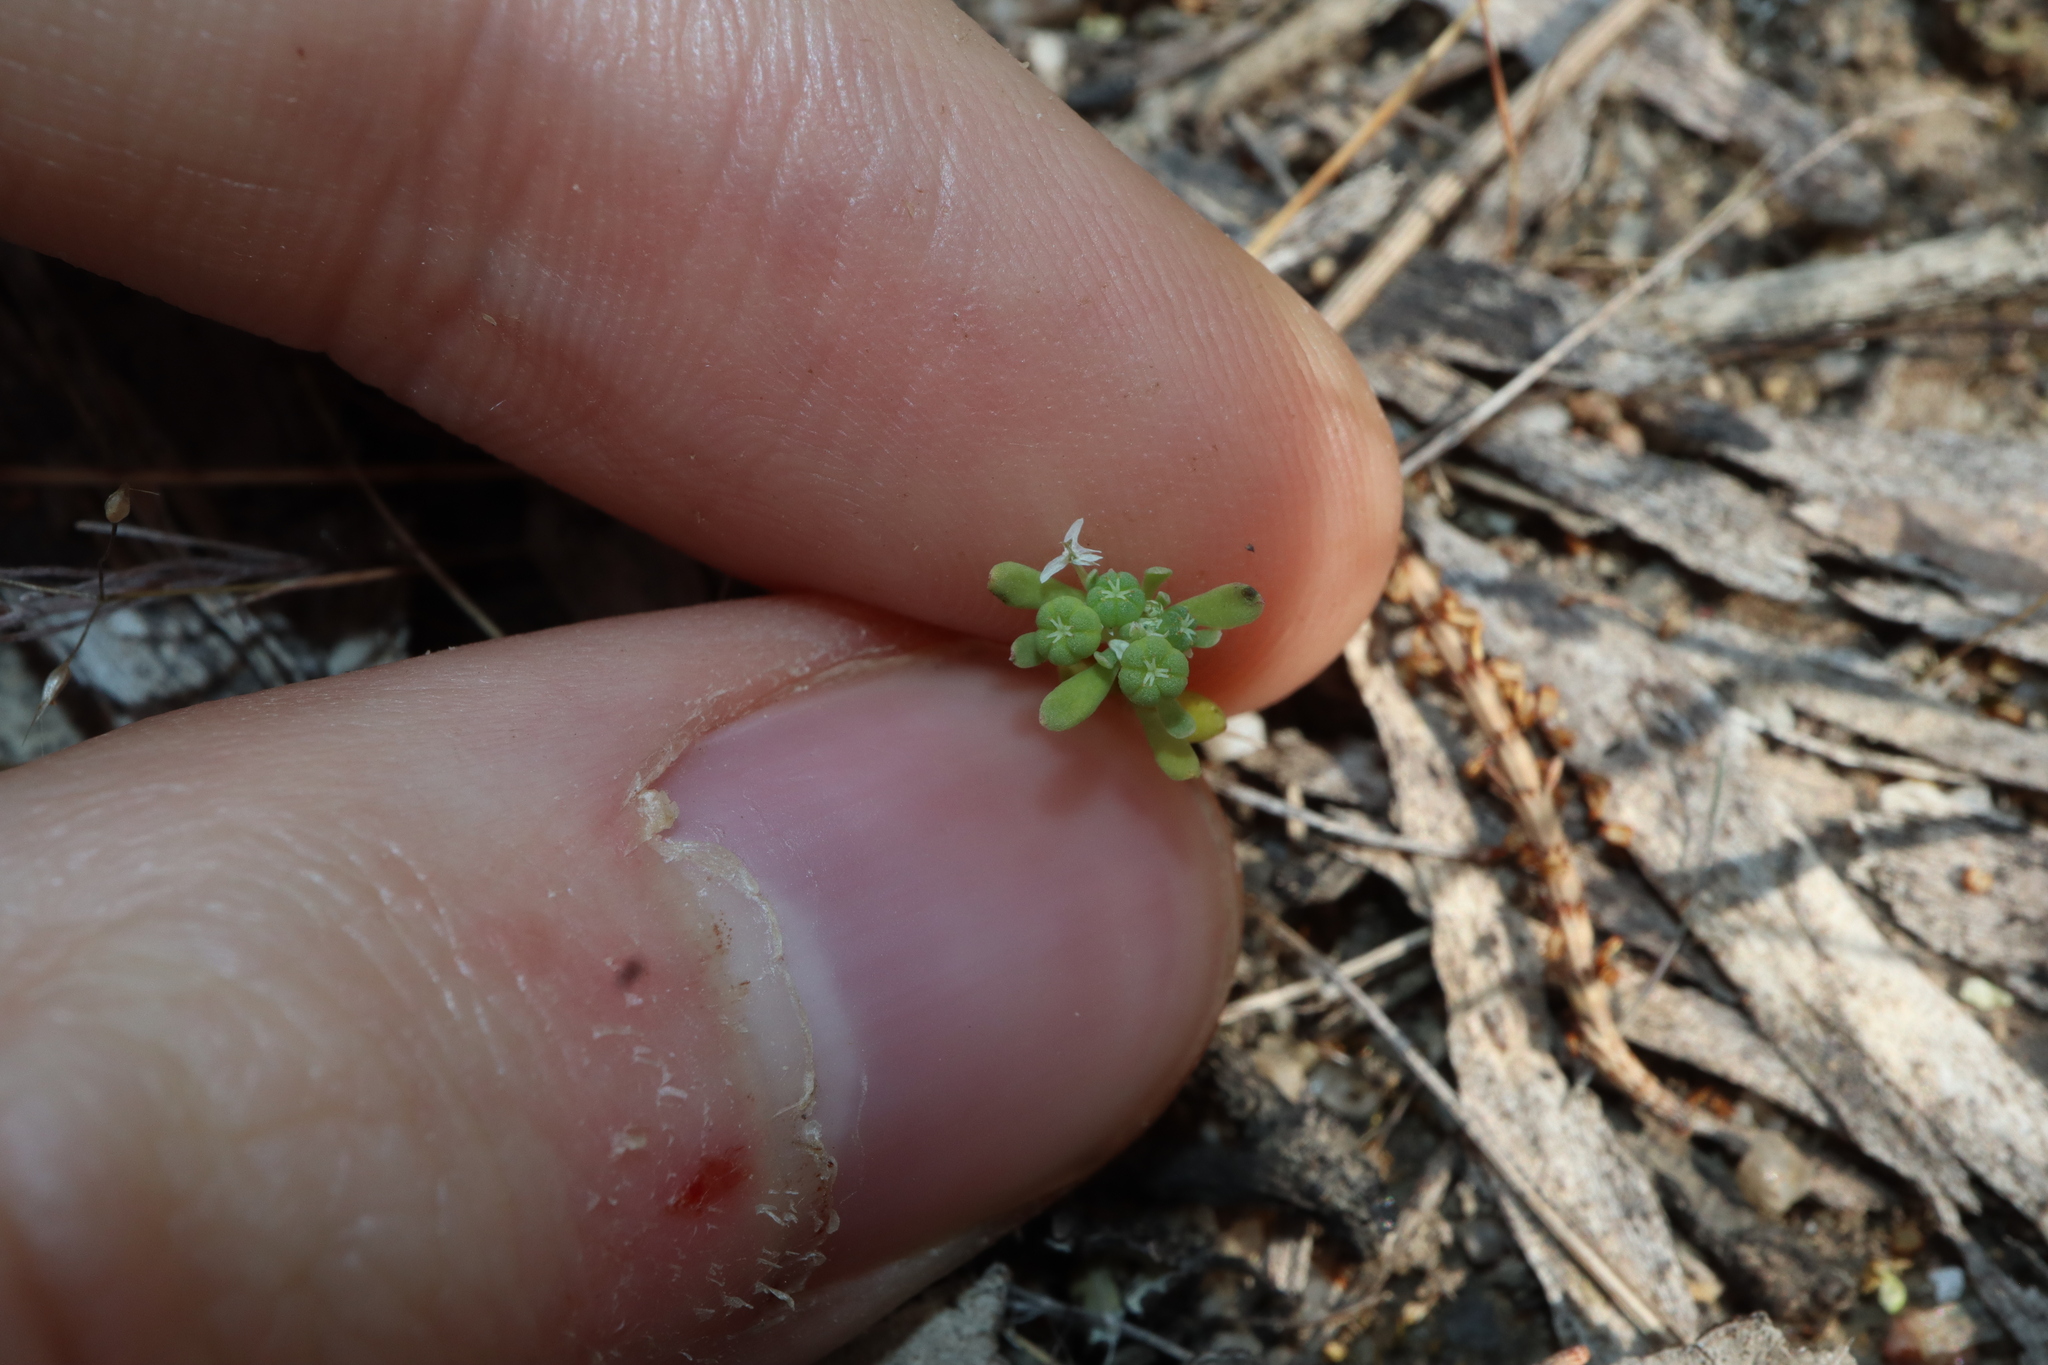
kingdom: Plantae
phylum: Tracheophyta
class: Magnoliopsida
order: Malpighiales
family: Phyllanthaceae
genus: Poranthera
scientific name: Poranthera microphylla
